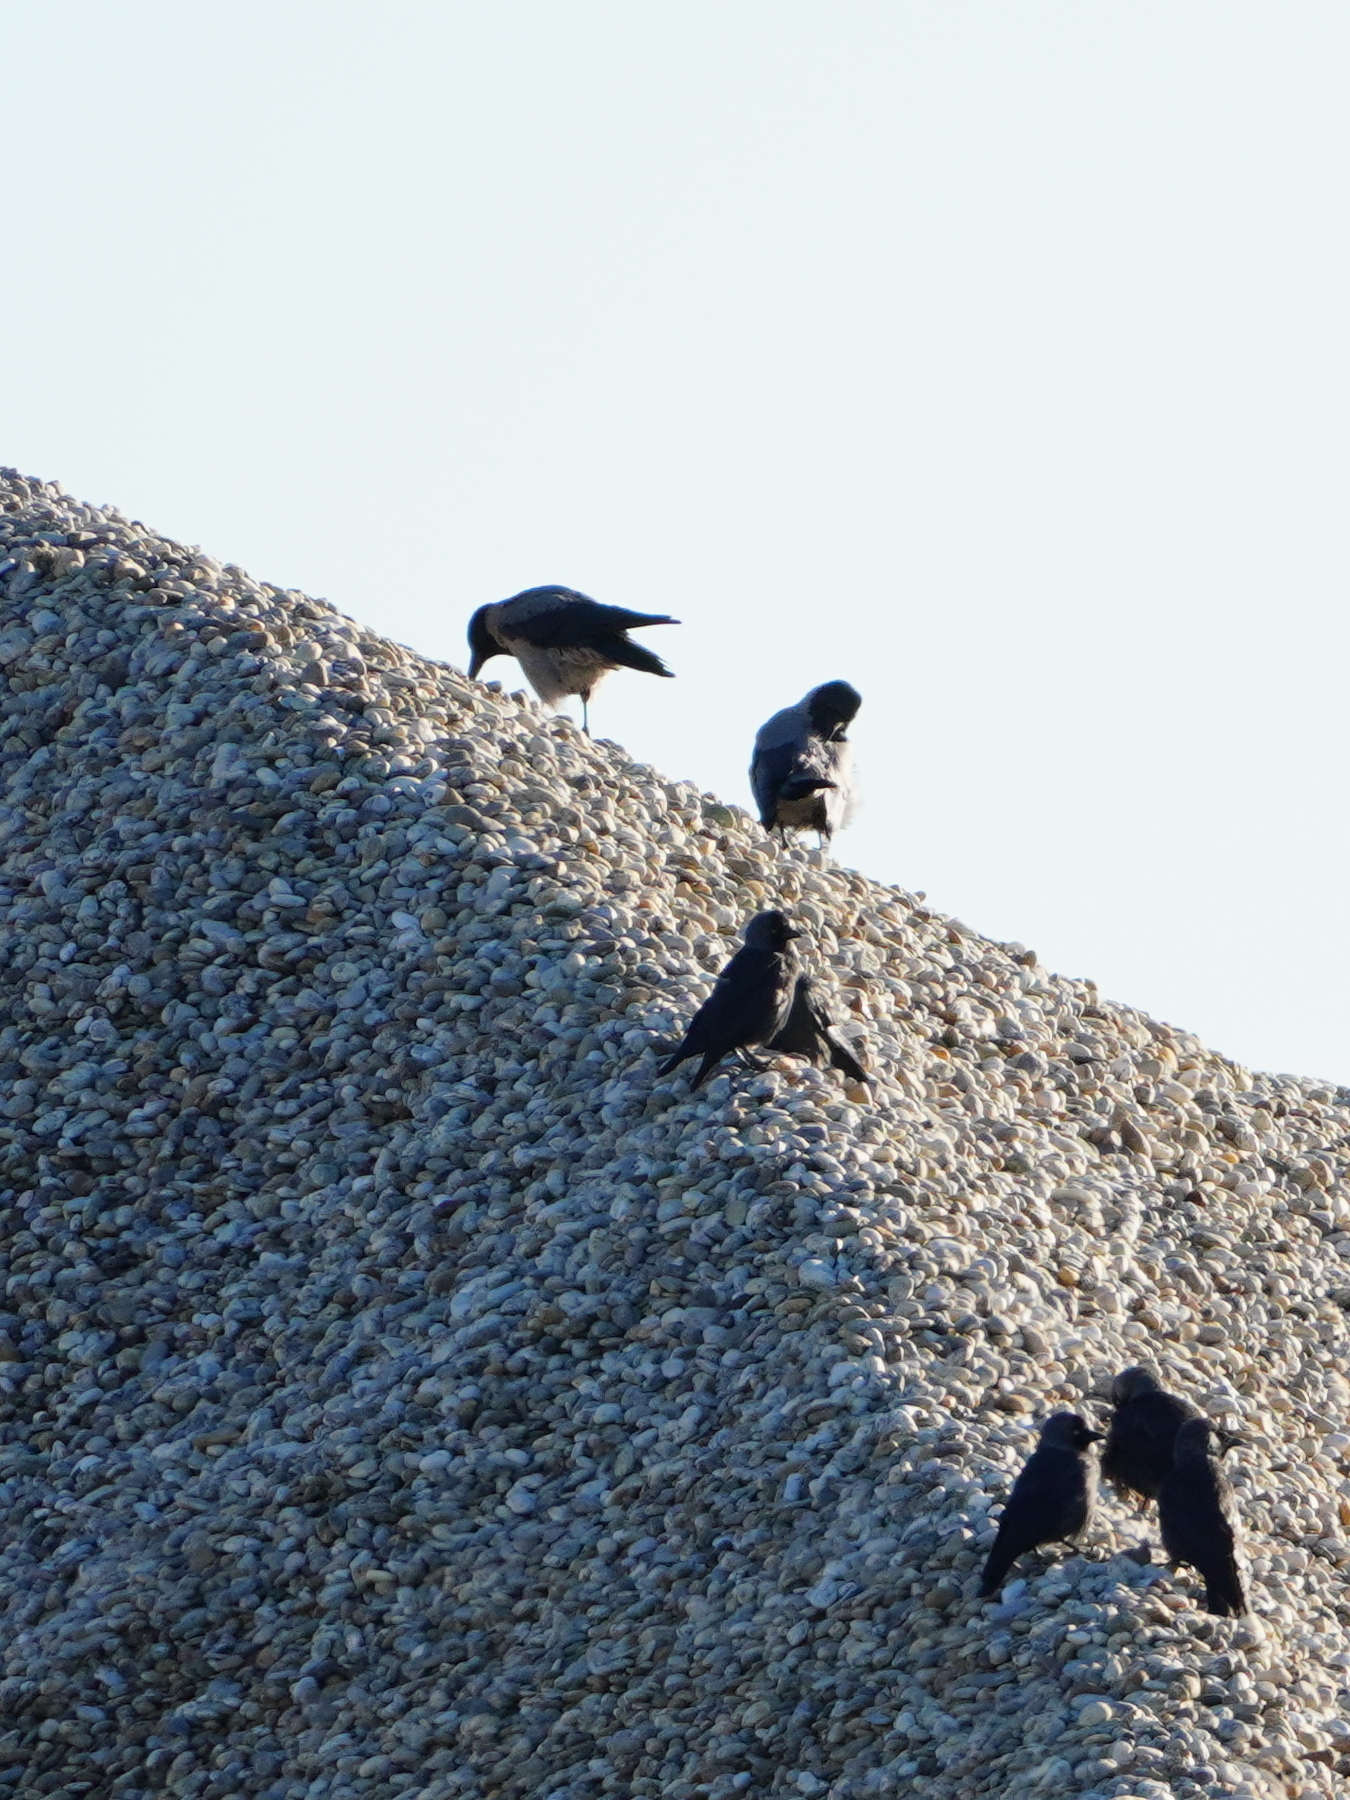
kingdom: Animalia
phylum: Chordata
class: Aves
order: Passeriformes
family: Corvidae
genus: Corvus
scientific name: Corvus cornix
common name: Hooded crow
